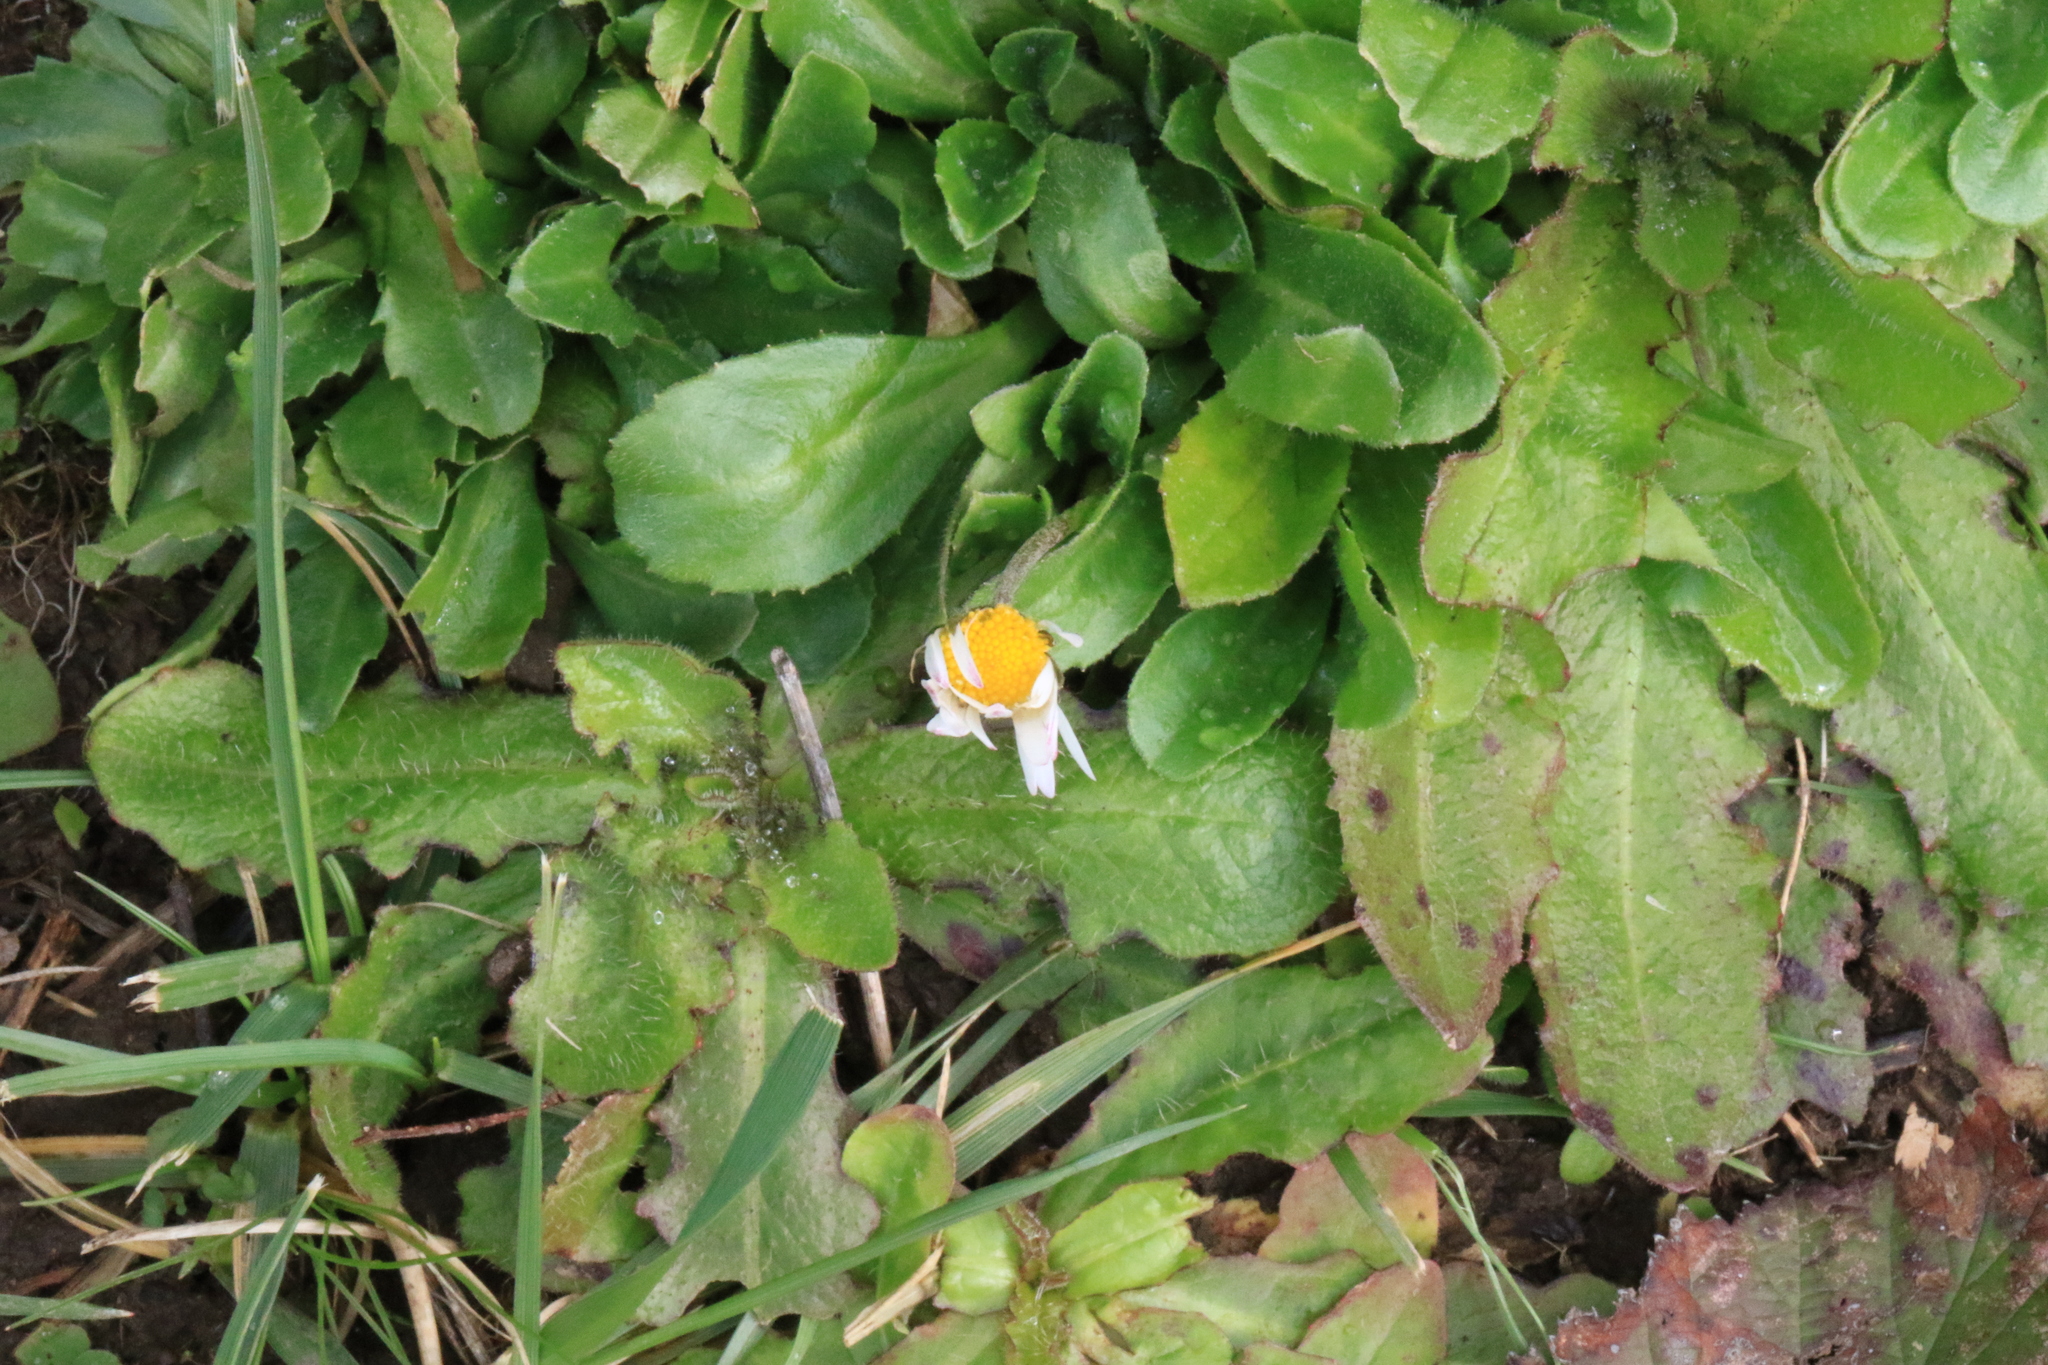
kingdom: Plantae
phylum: Tracheophyta
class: Magnoliopsida
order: Asterales
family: Asteraceae
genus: Bellis
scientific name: Bellis perennis
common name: Lawndaisy
